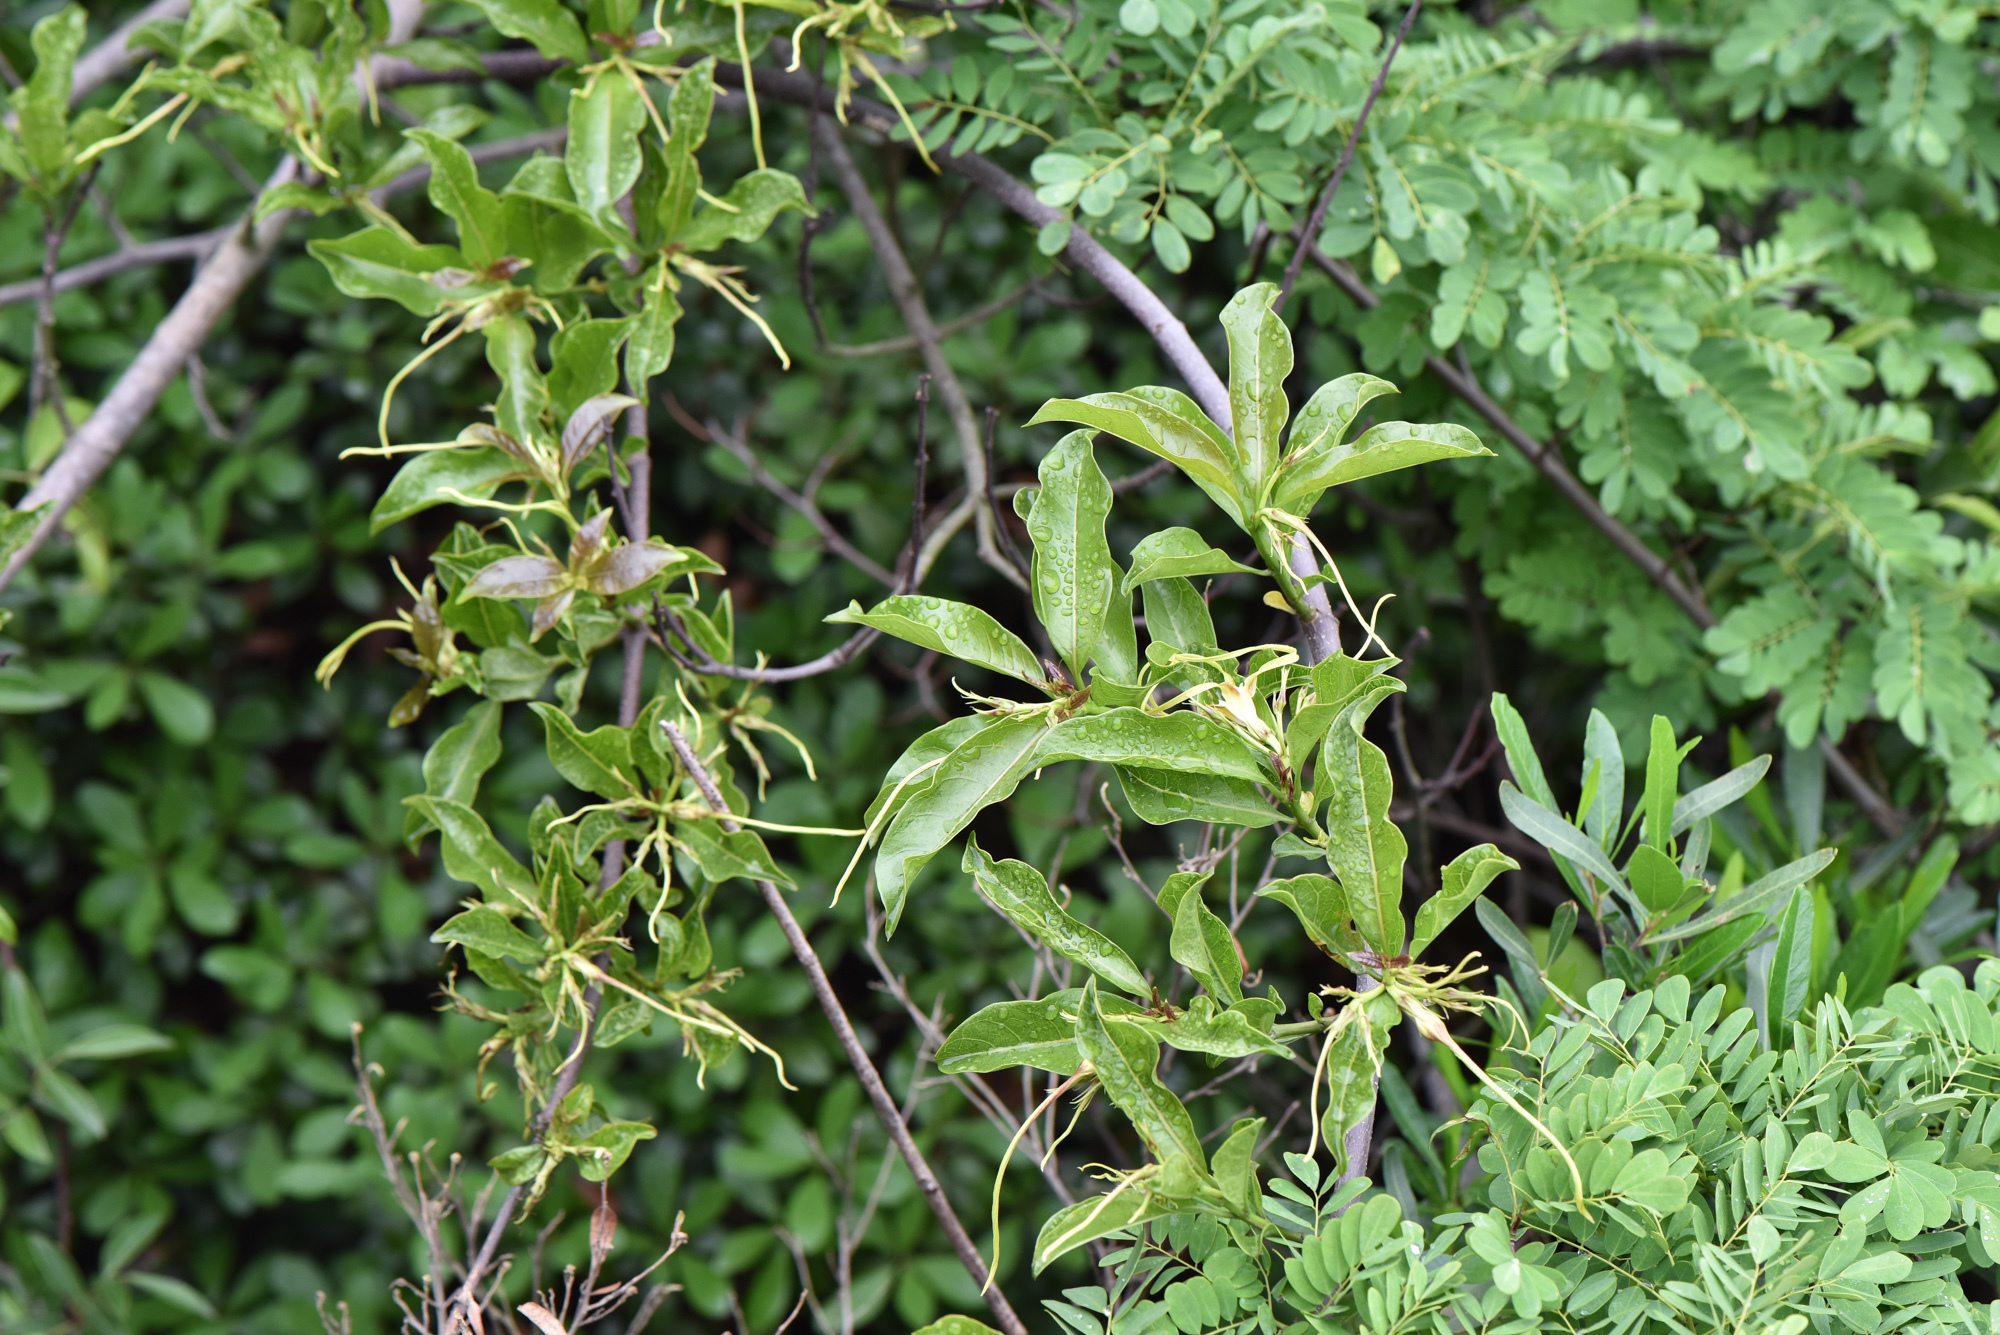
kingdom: Plantae
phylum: Tracheophyta
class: Magnoliopsida
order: Gentianales
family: Apocynaceae
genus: Strophanthus
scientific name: Strophanthus divaricatus
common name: Goat-horns
